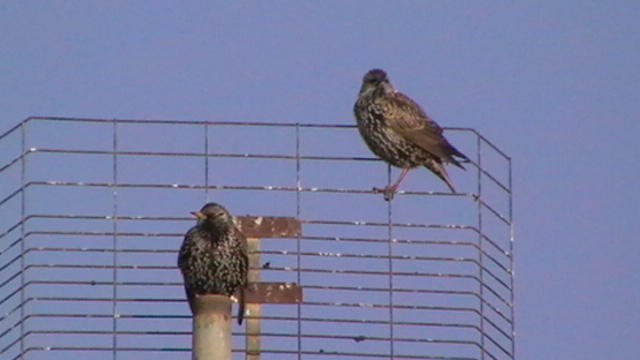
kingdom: Animalia
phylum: Chordata
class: Aves
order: Passeriformes
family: Sturnidae
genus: Sturnus
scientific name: Sturnus vulgaris
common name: Common starling
